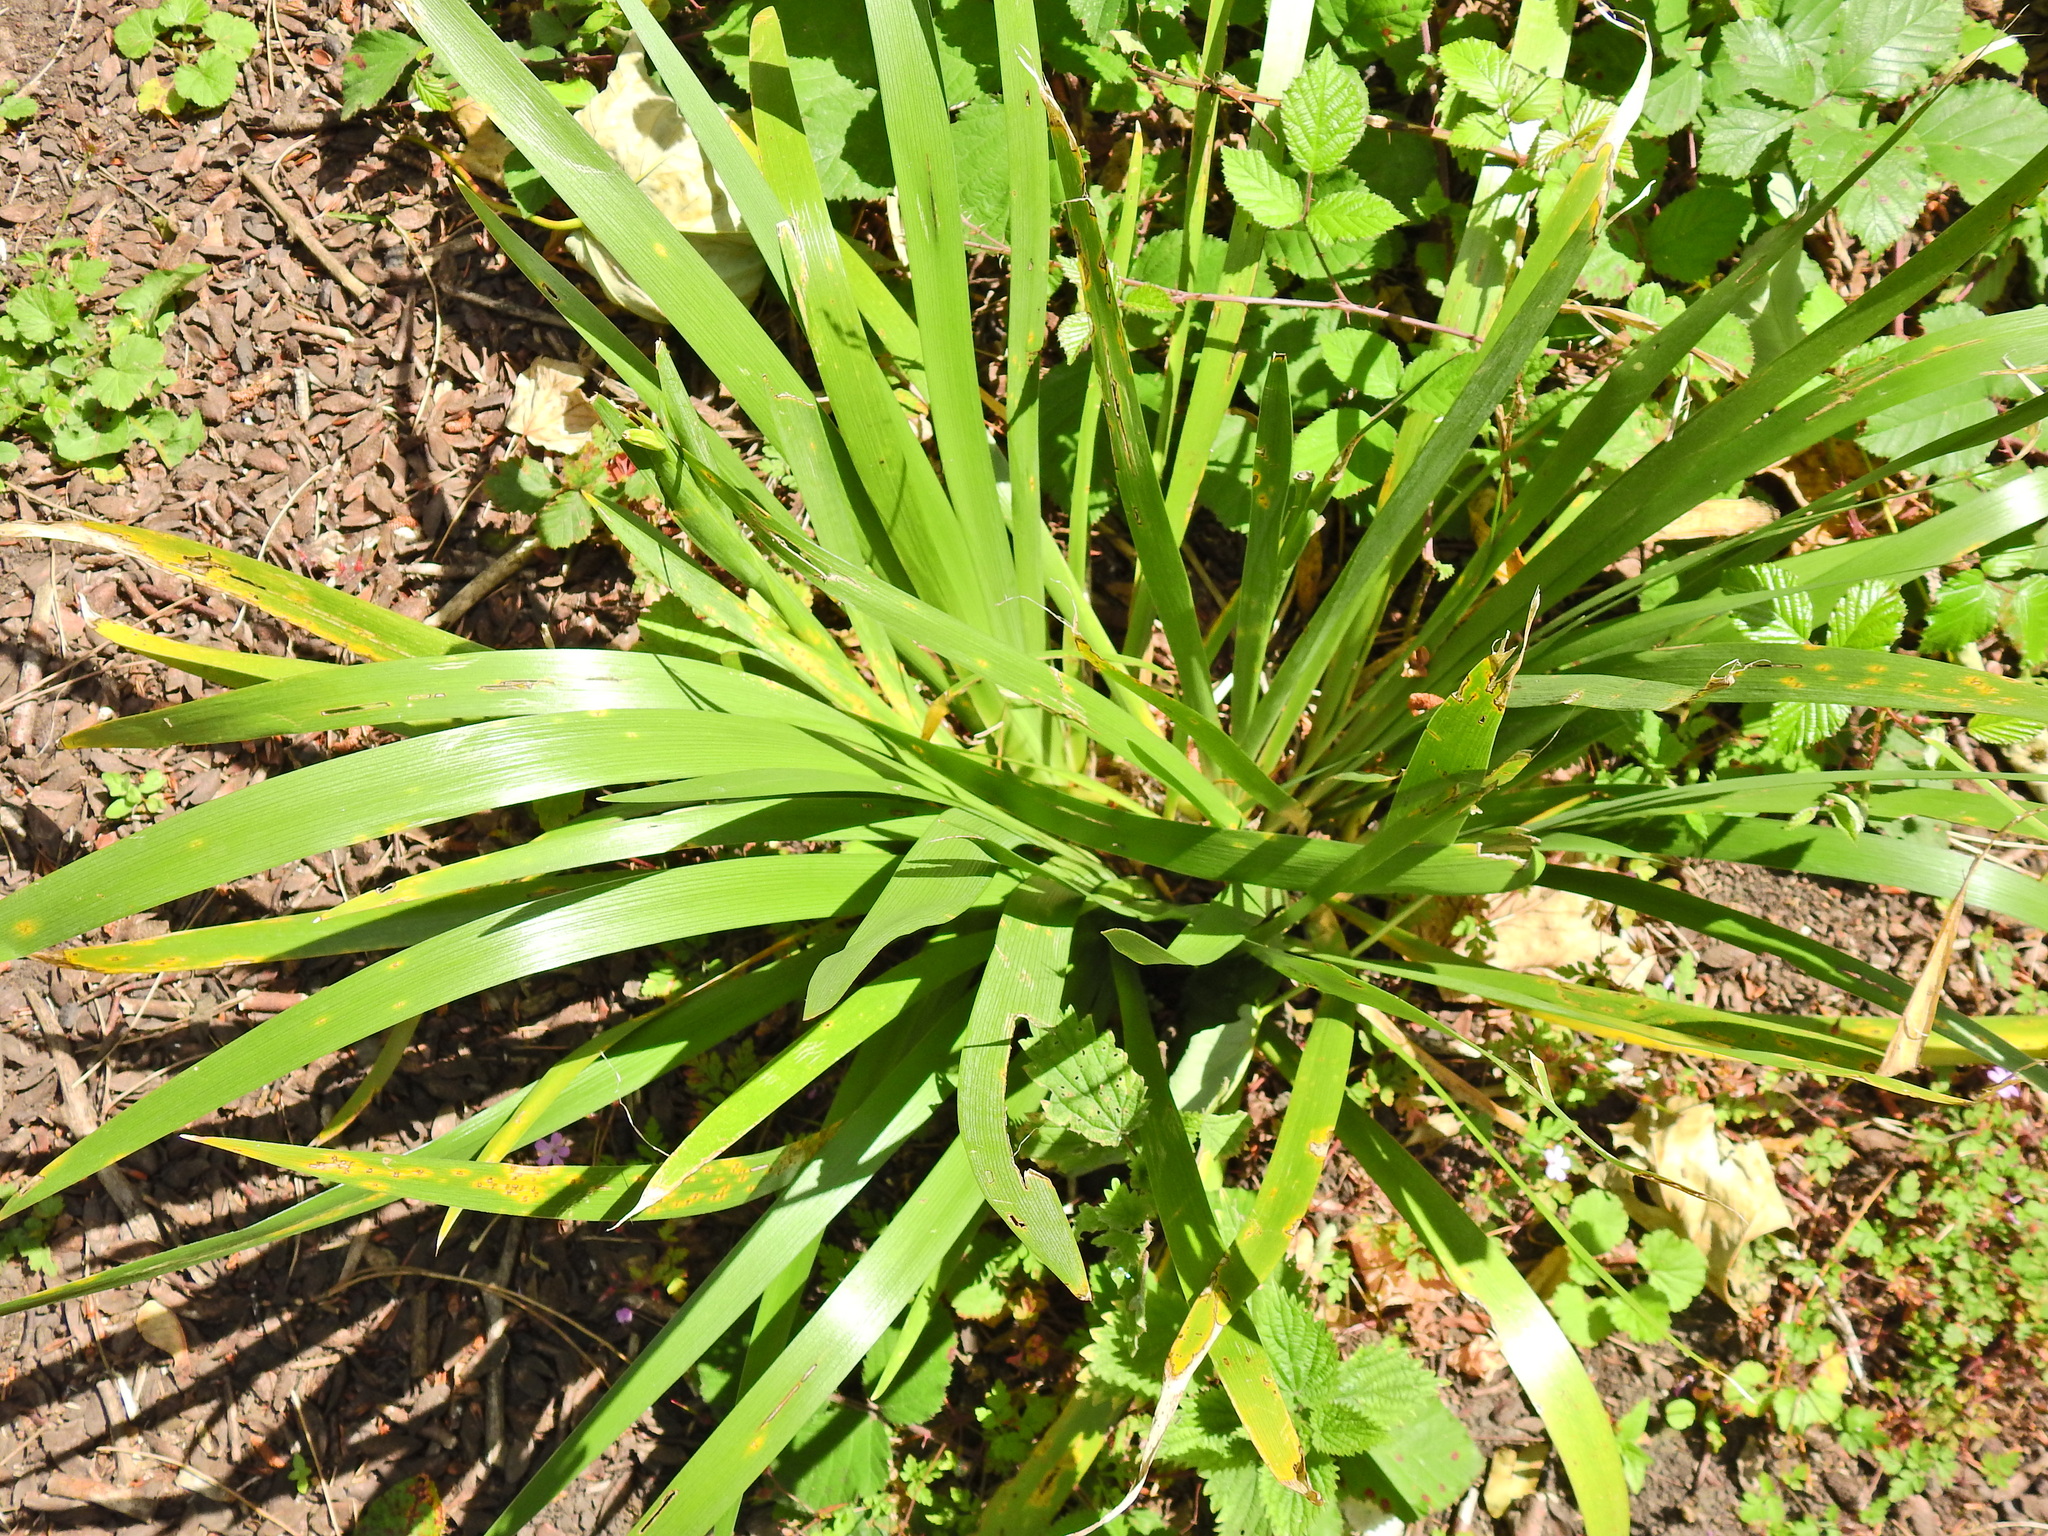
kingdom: Plantae
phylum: Tracheophyta
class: Liliopsida
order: Asparagales
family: Iridaceae
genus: Iris
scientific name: Iris foetidissima
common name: Stinking iris
